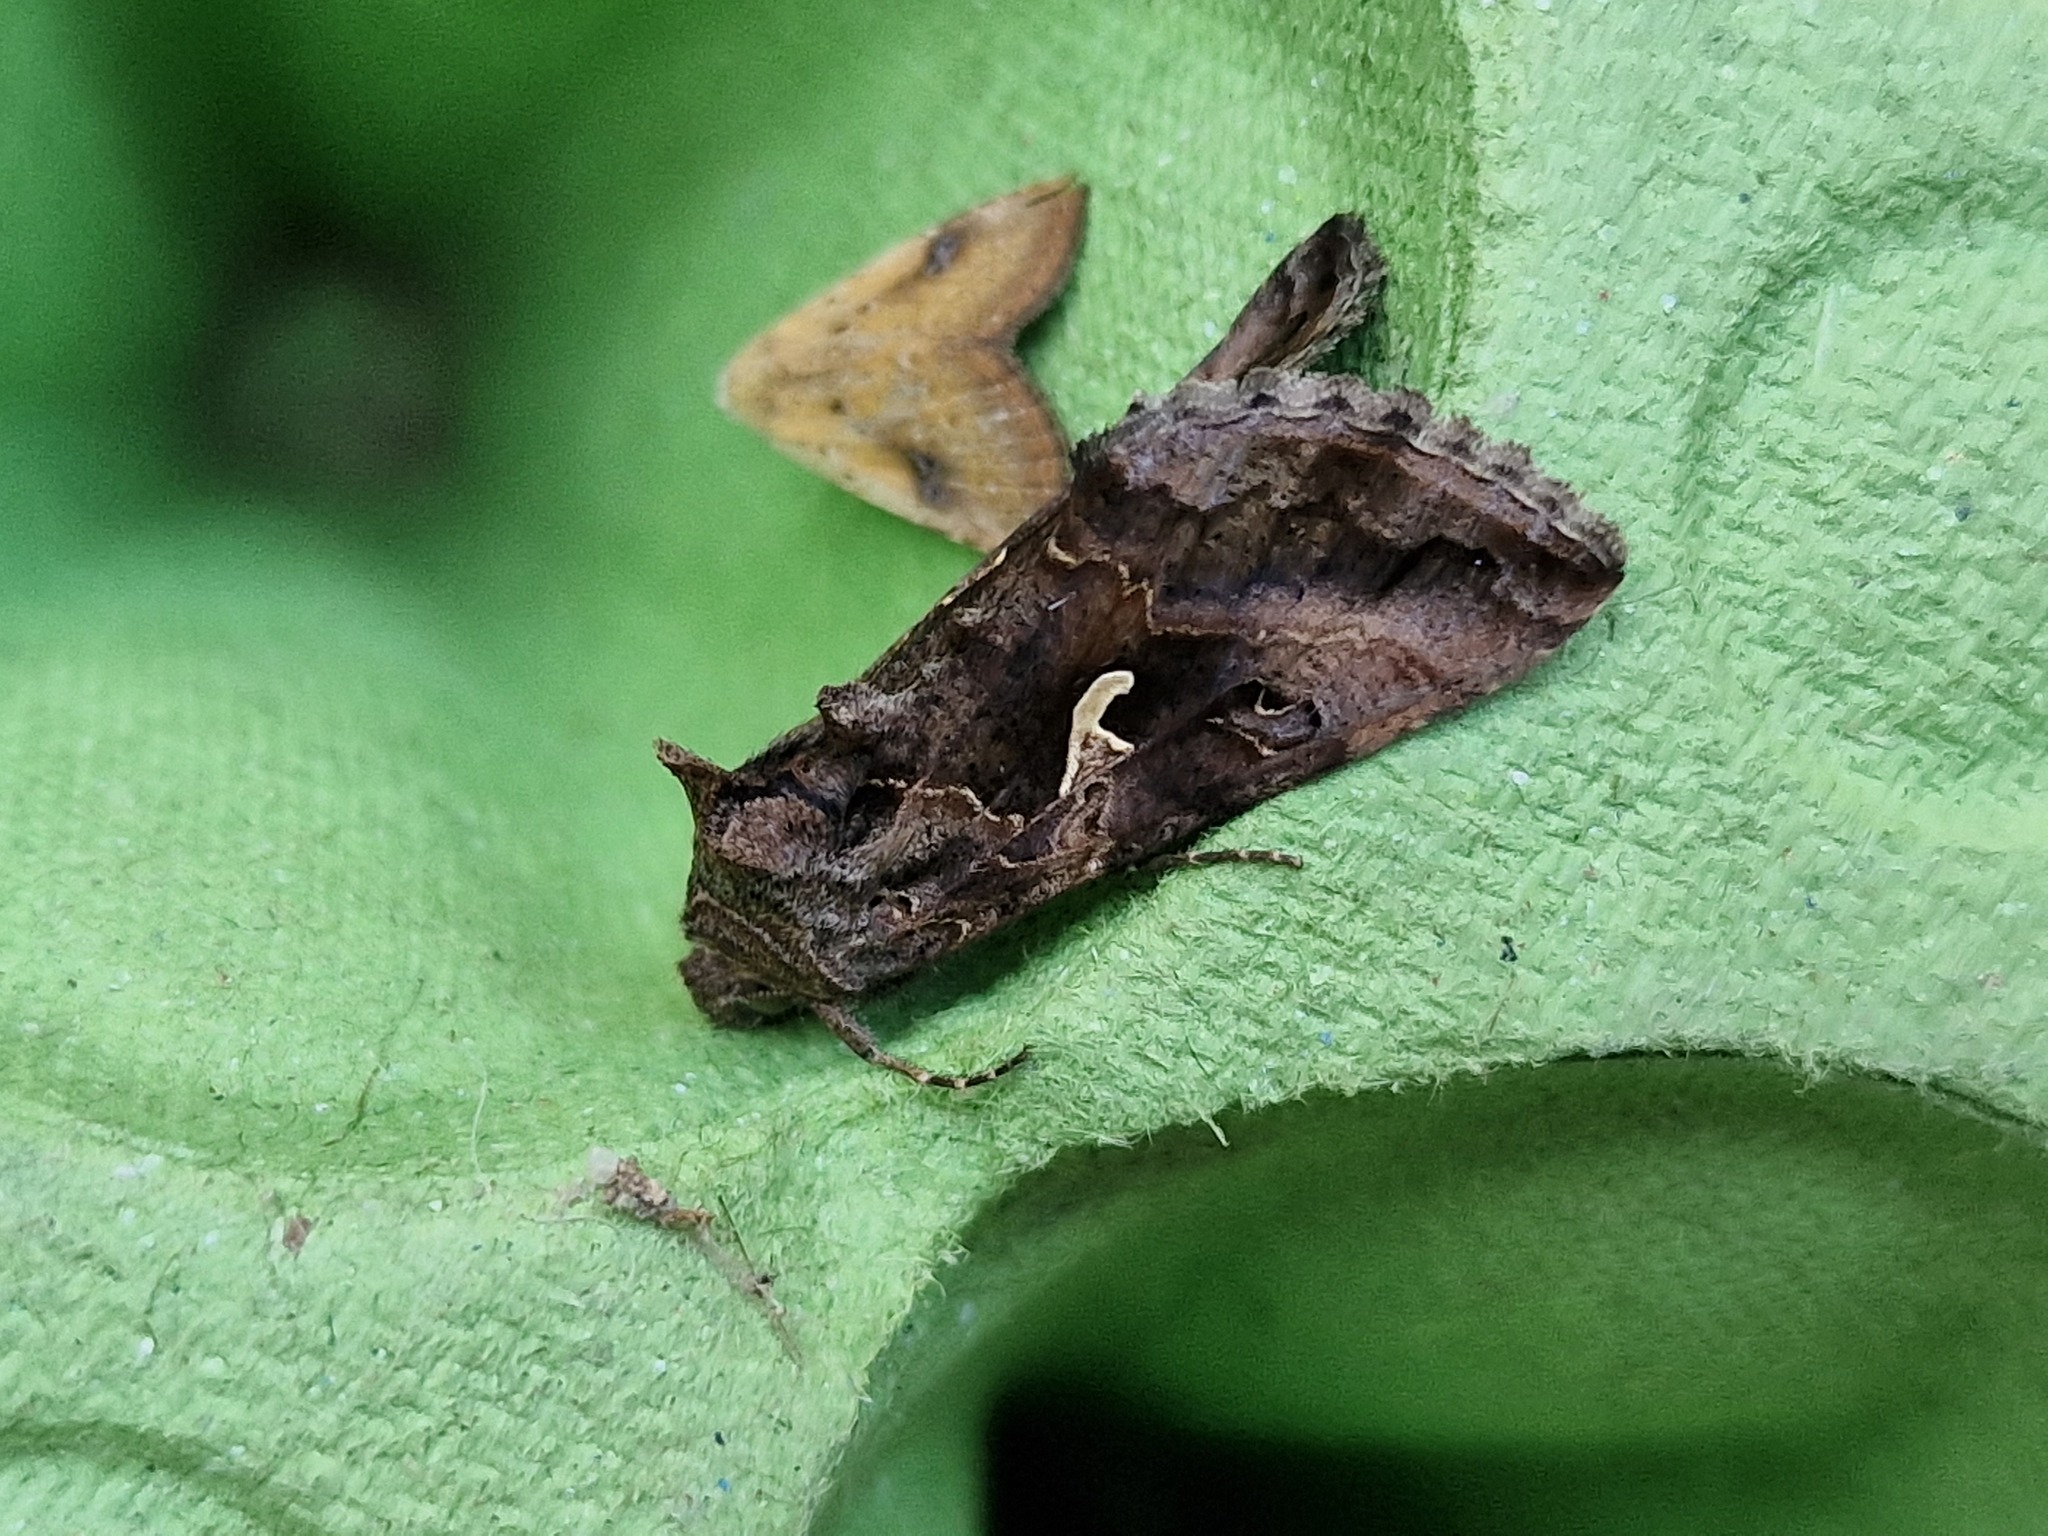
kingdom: Animalia
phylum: Arthropoda
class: Insecta
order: Lepidoptera
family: Noctuidae
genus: Autographa
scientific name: Autographa gamma
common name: Silver y
